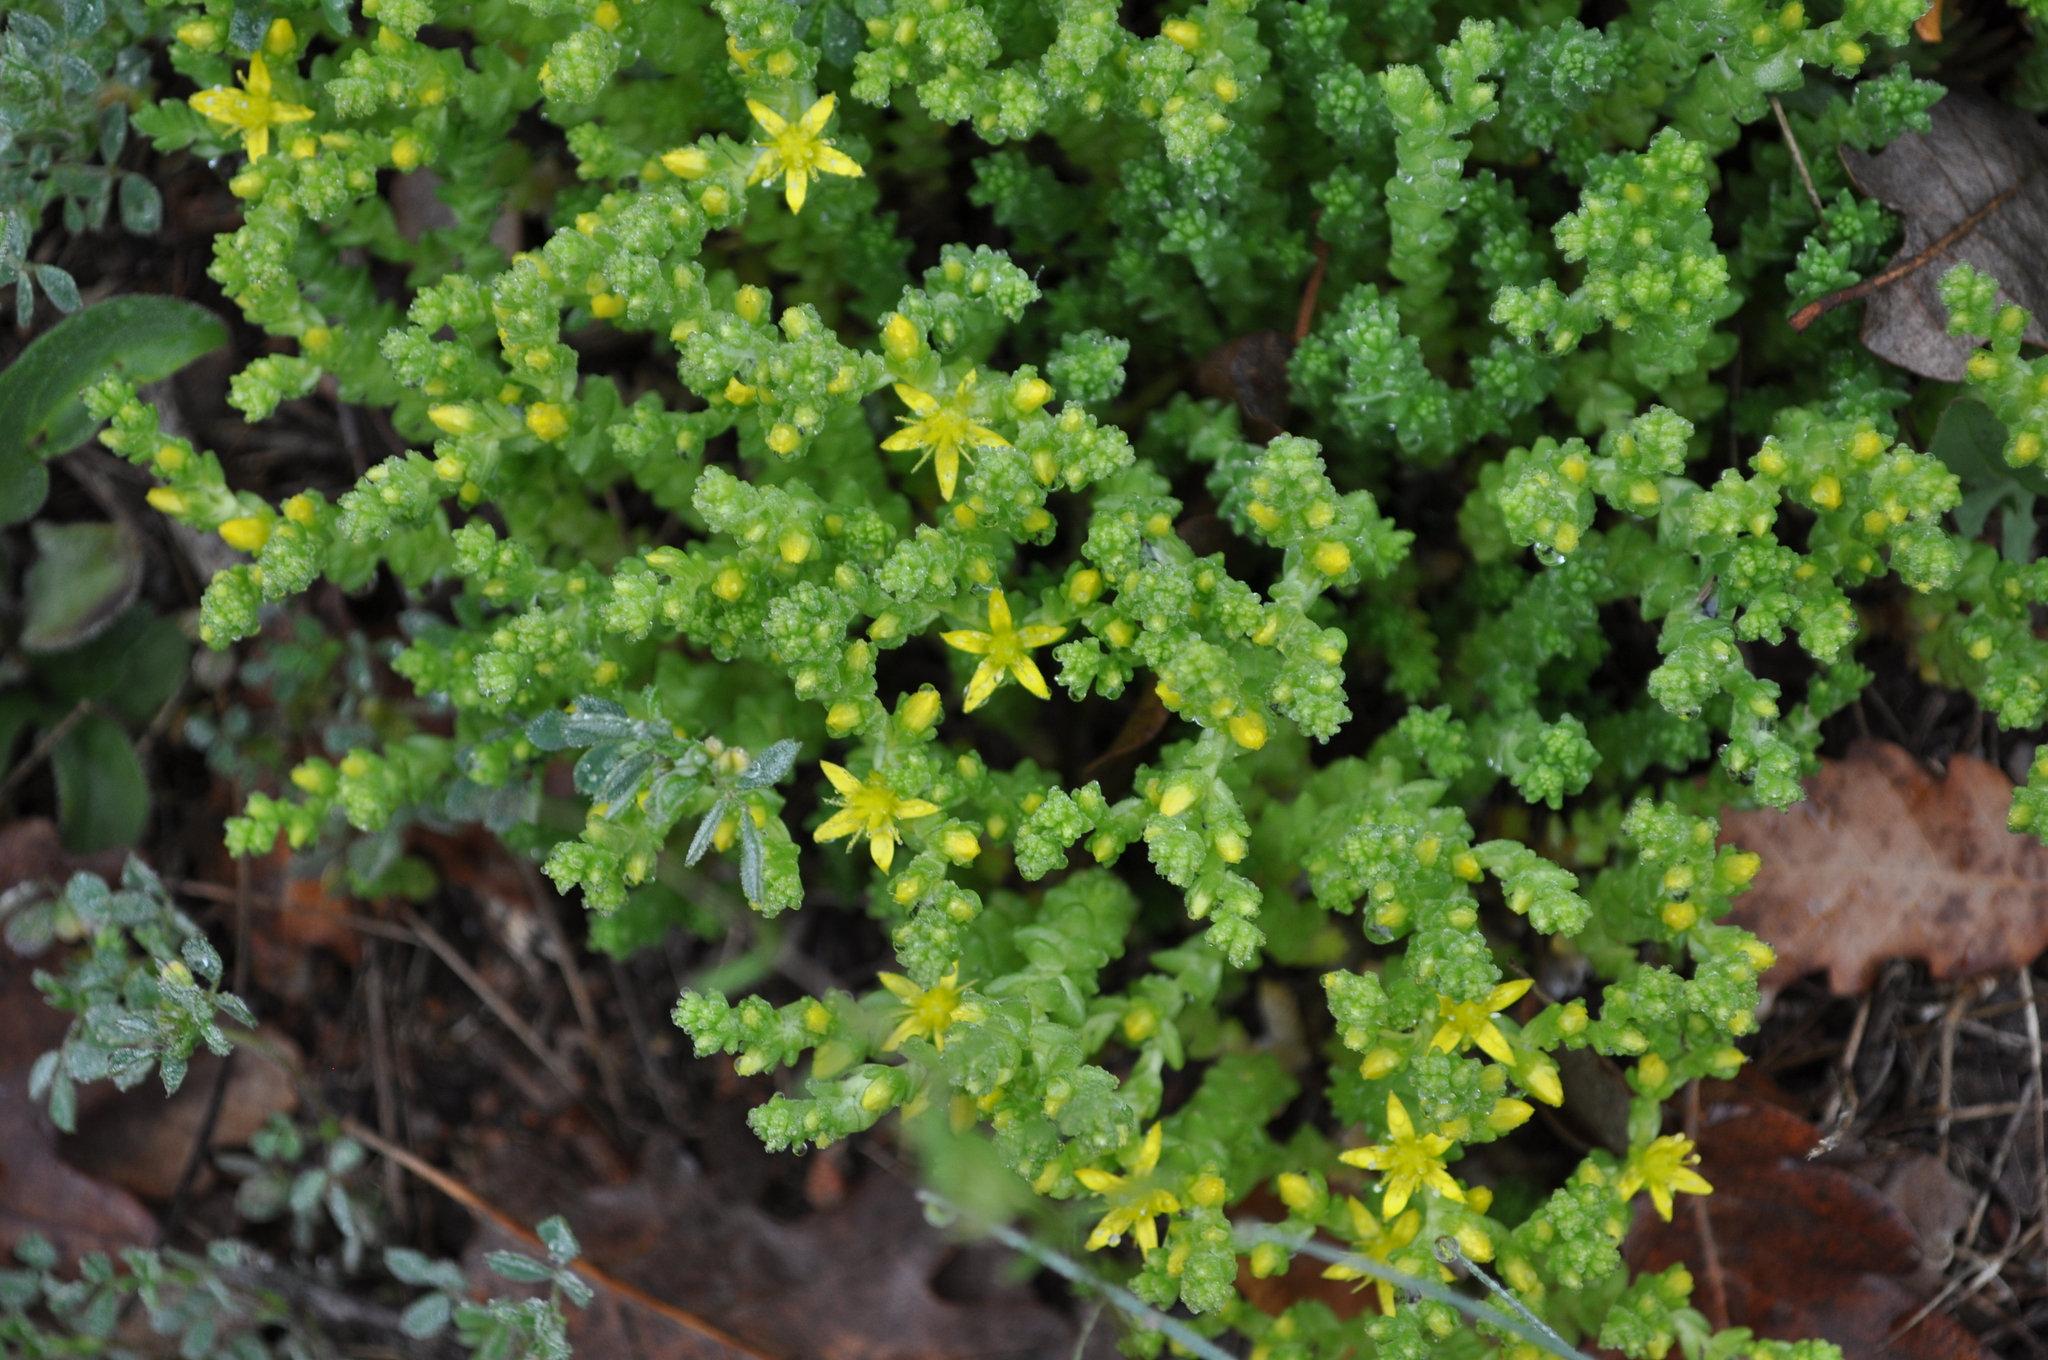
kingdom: Plantae
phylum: Tracheophyta
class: Magnoliopsida
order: Saxifragales
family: Crassulaceae
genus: Sedum
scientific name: Sedum acre
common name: Biting stonecrop
